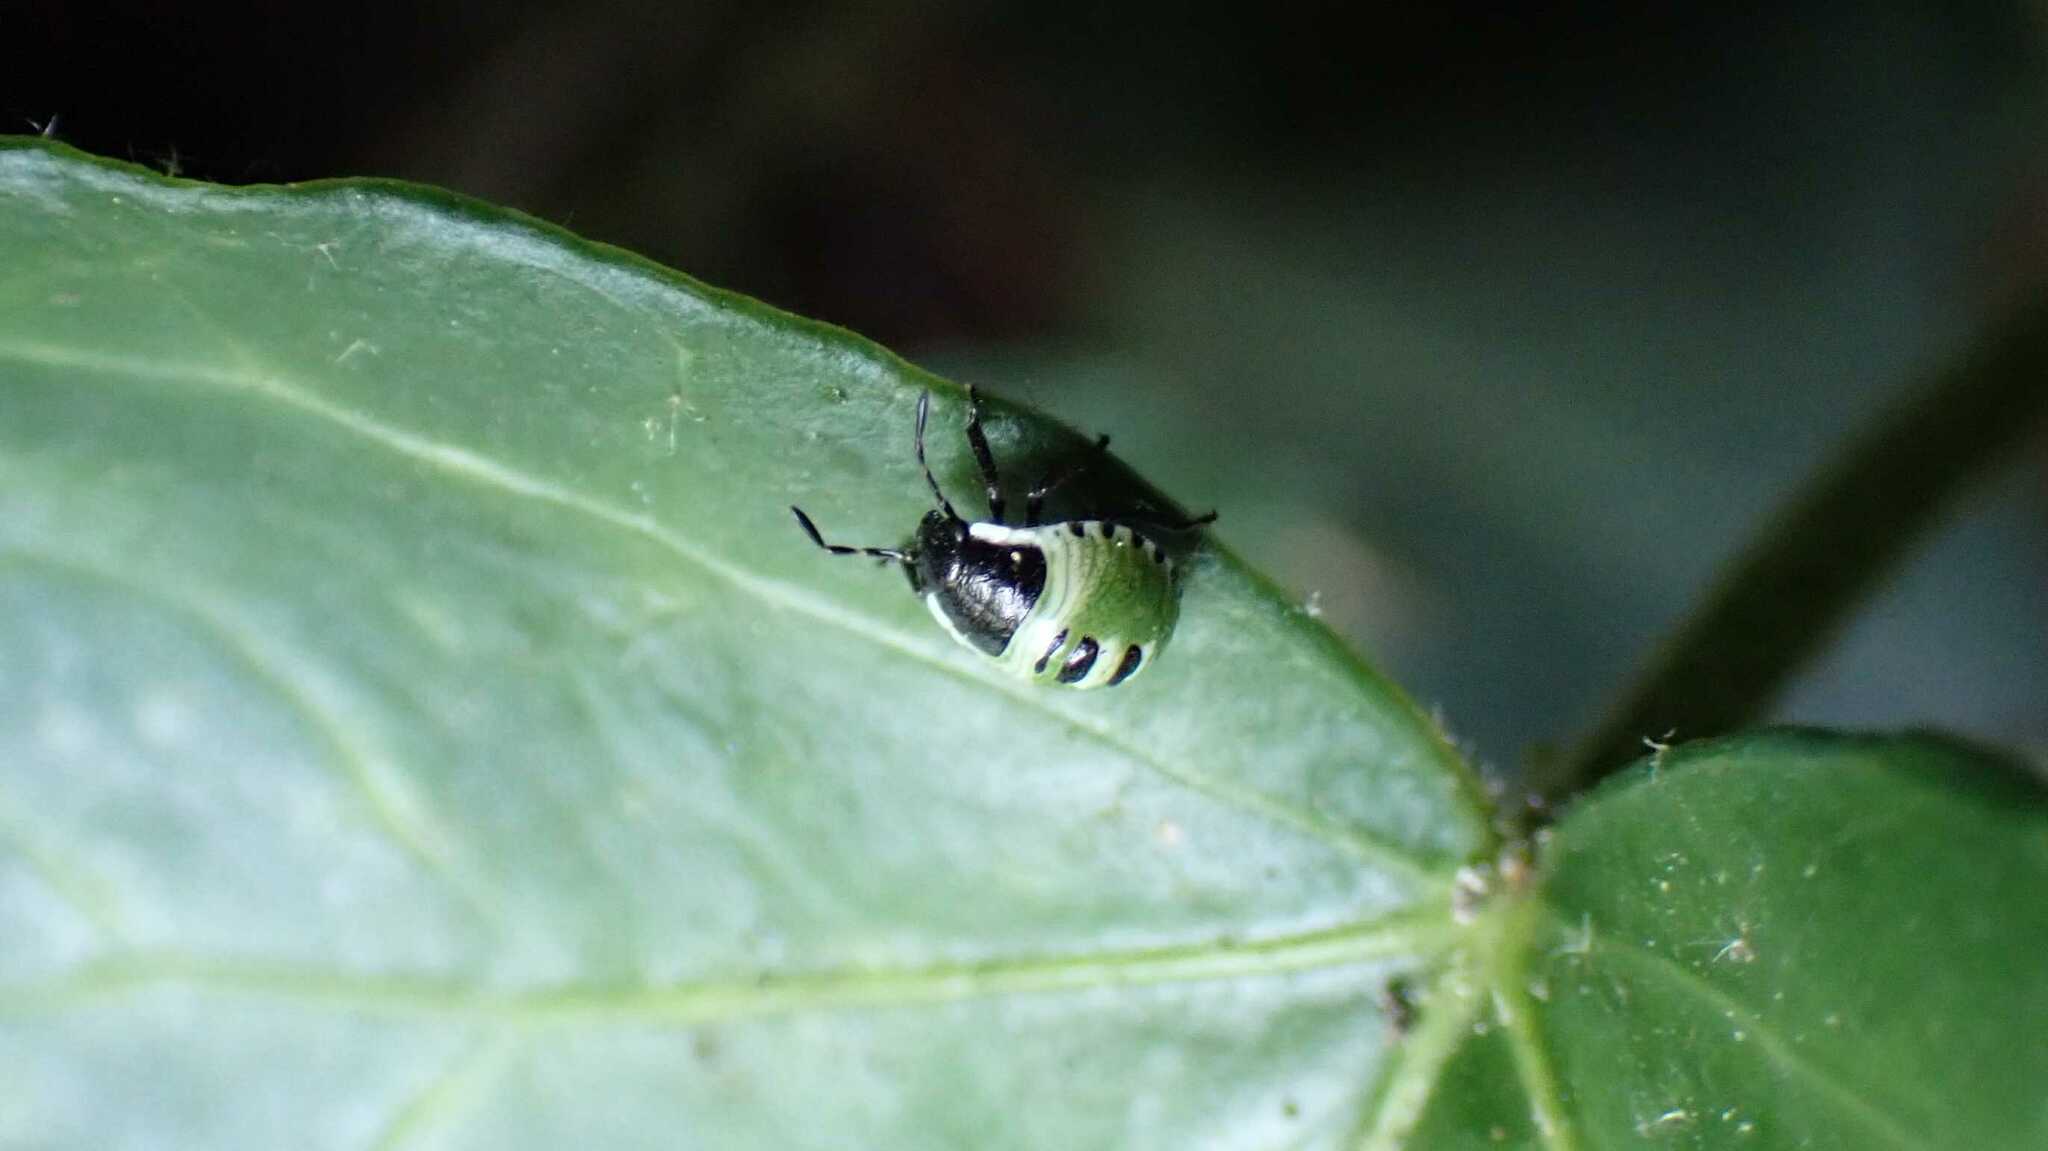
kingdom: Animalia
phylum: Arthropoda
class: Insecta
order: Hemiptera
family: Pentatomidae
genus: Palomena
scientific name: Palomena prasina
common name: Green shieldbug
